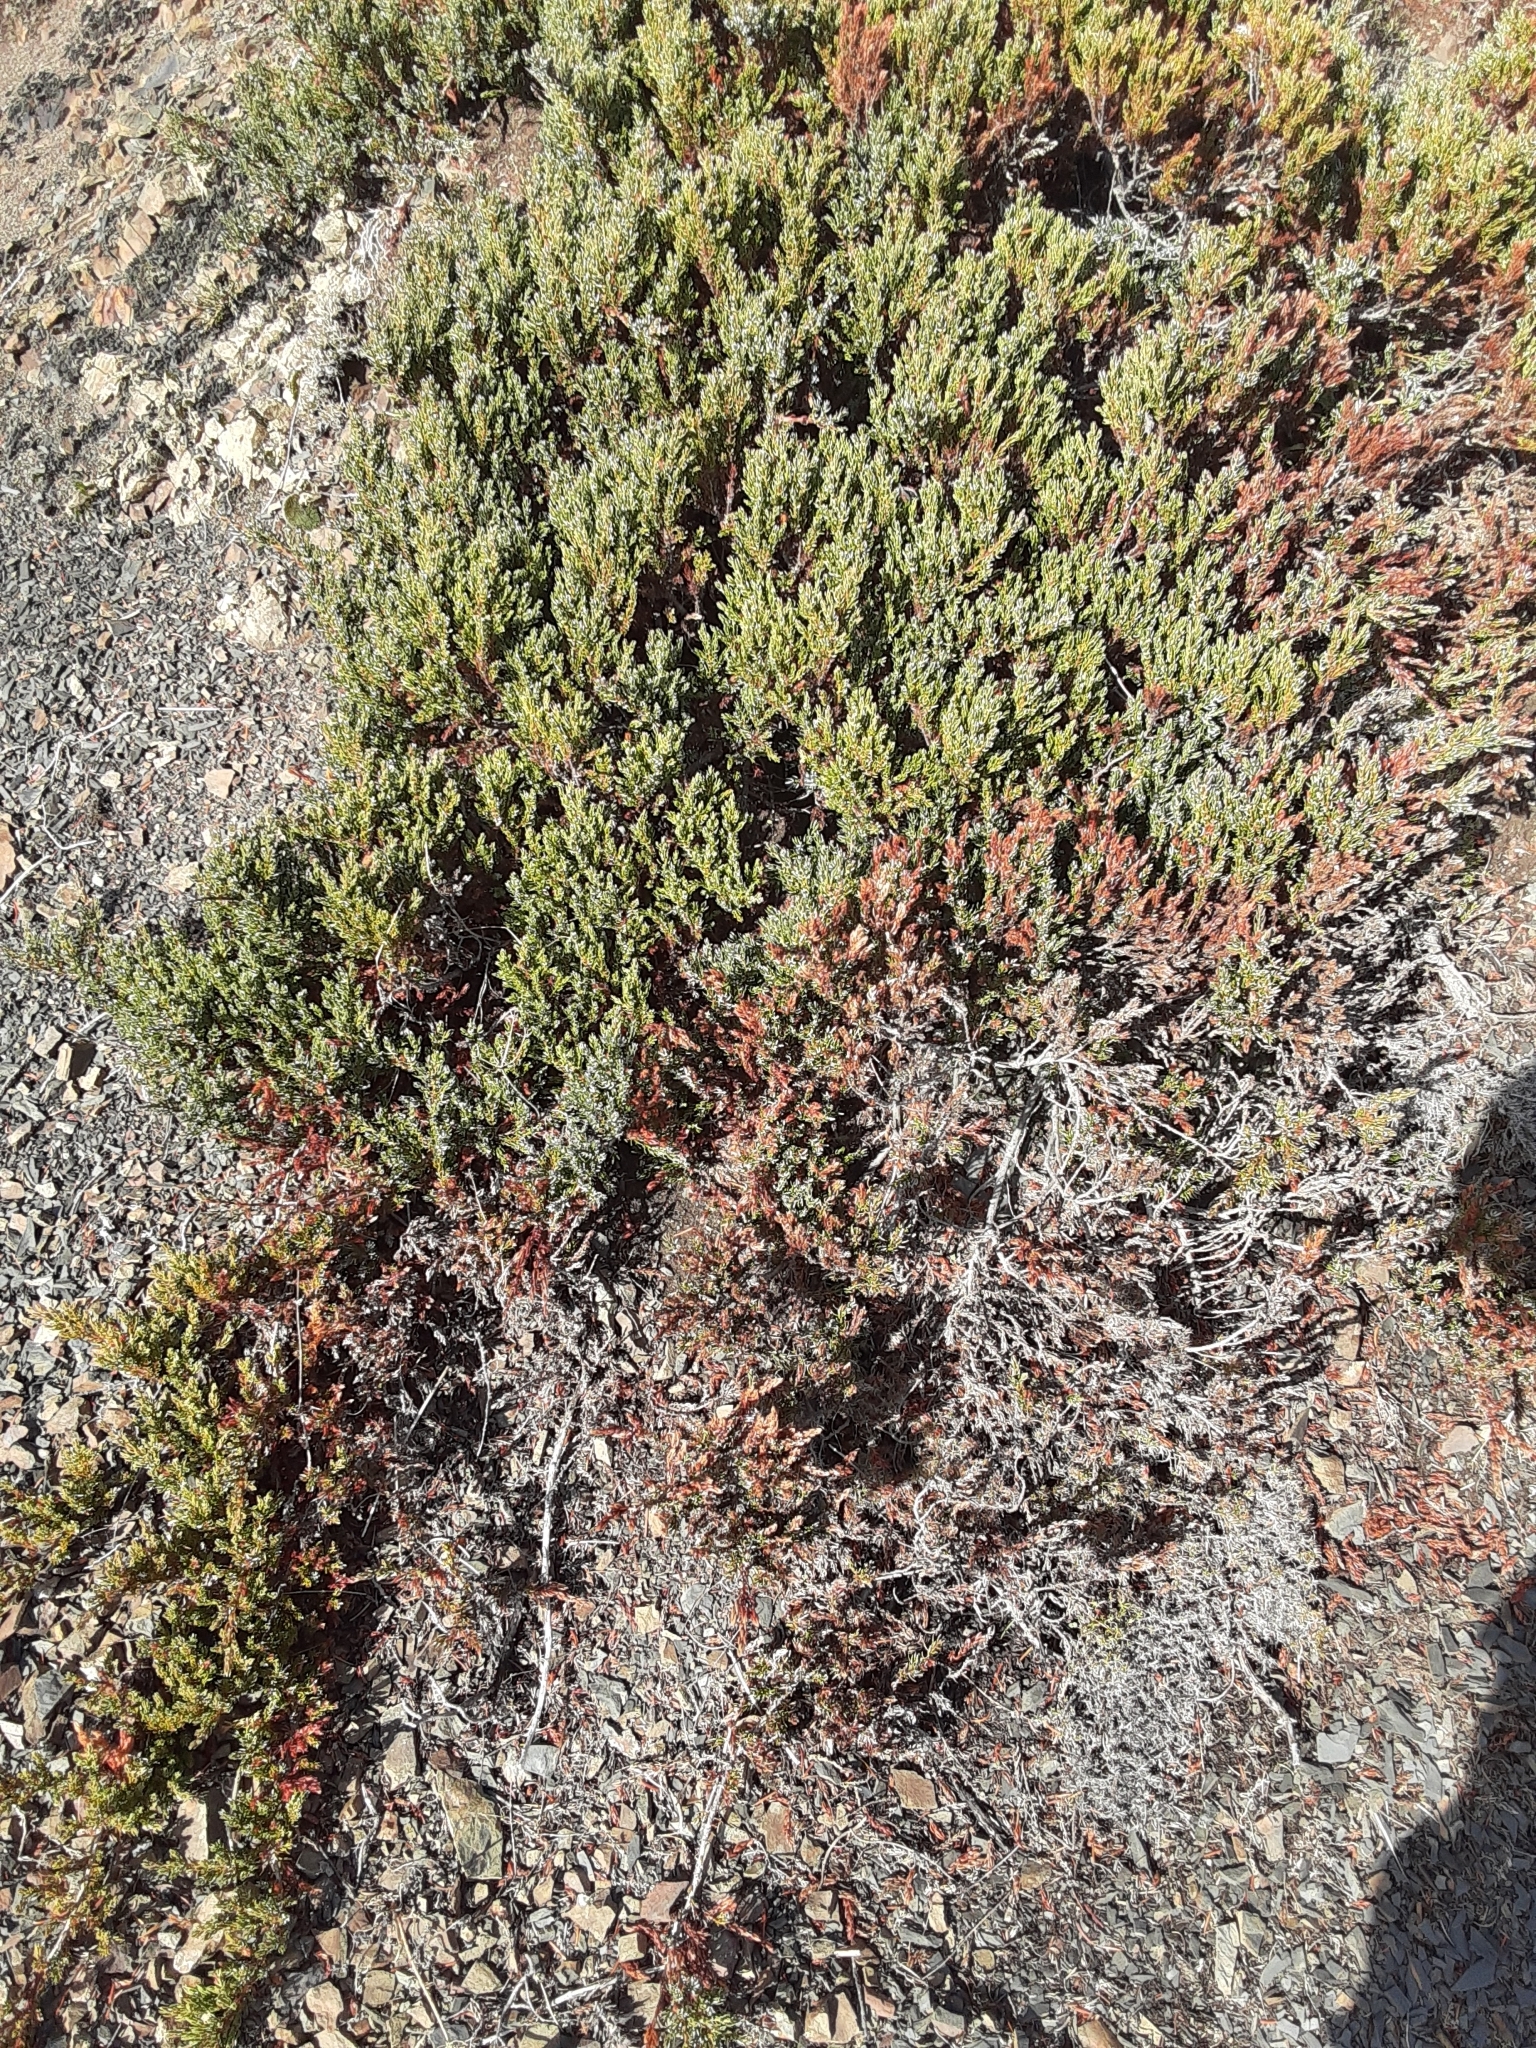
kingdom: Plantae
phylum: Tracheophyta
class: Pinopsida
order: Pinales
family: Cupressaceae
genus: Juniperus
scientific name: Juniperus communis
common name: Common juniper
